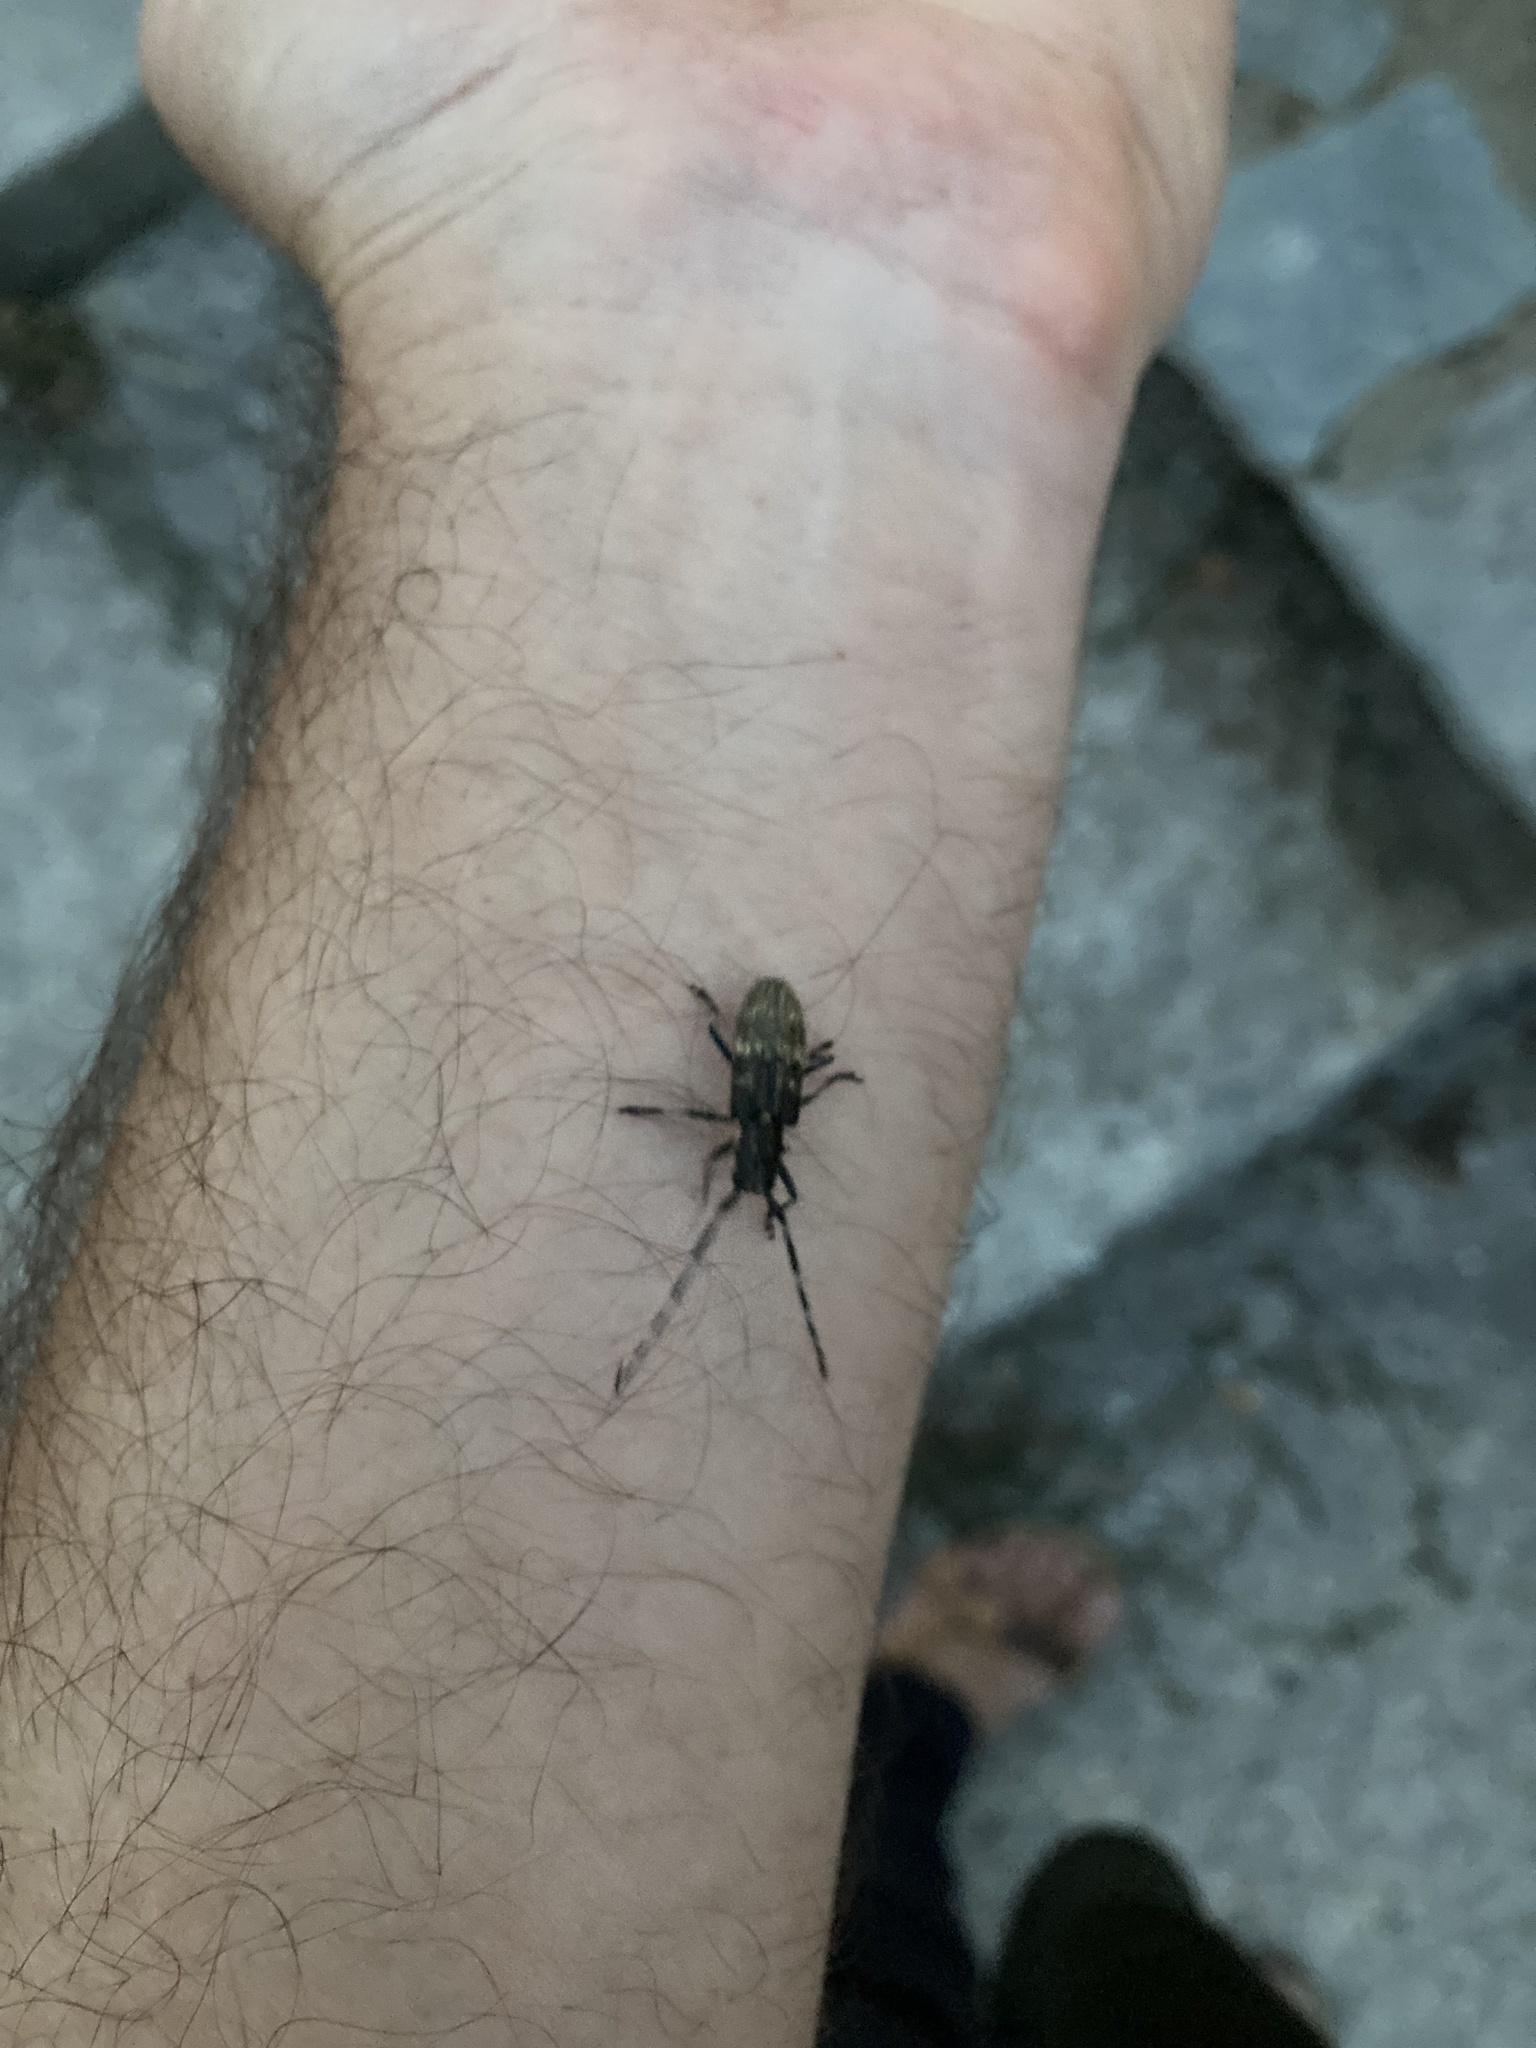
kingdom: Animalia
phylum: Arthropoda
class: Insecta
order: Coleoptera
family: Cerambycidae
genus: Monochamus
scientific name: Monochamus galloprovincialis
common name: Pine sawyer
